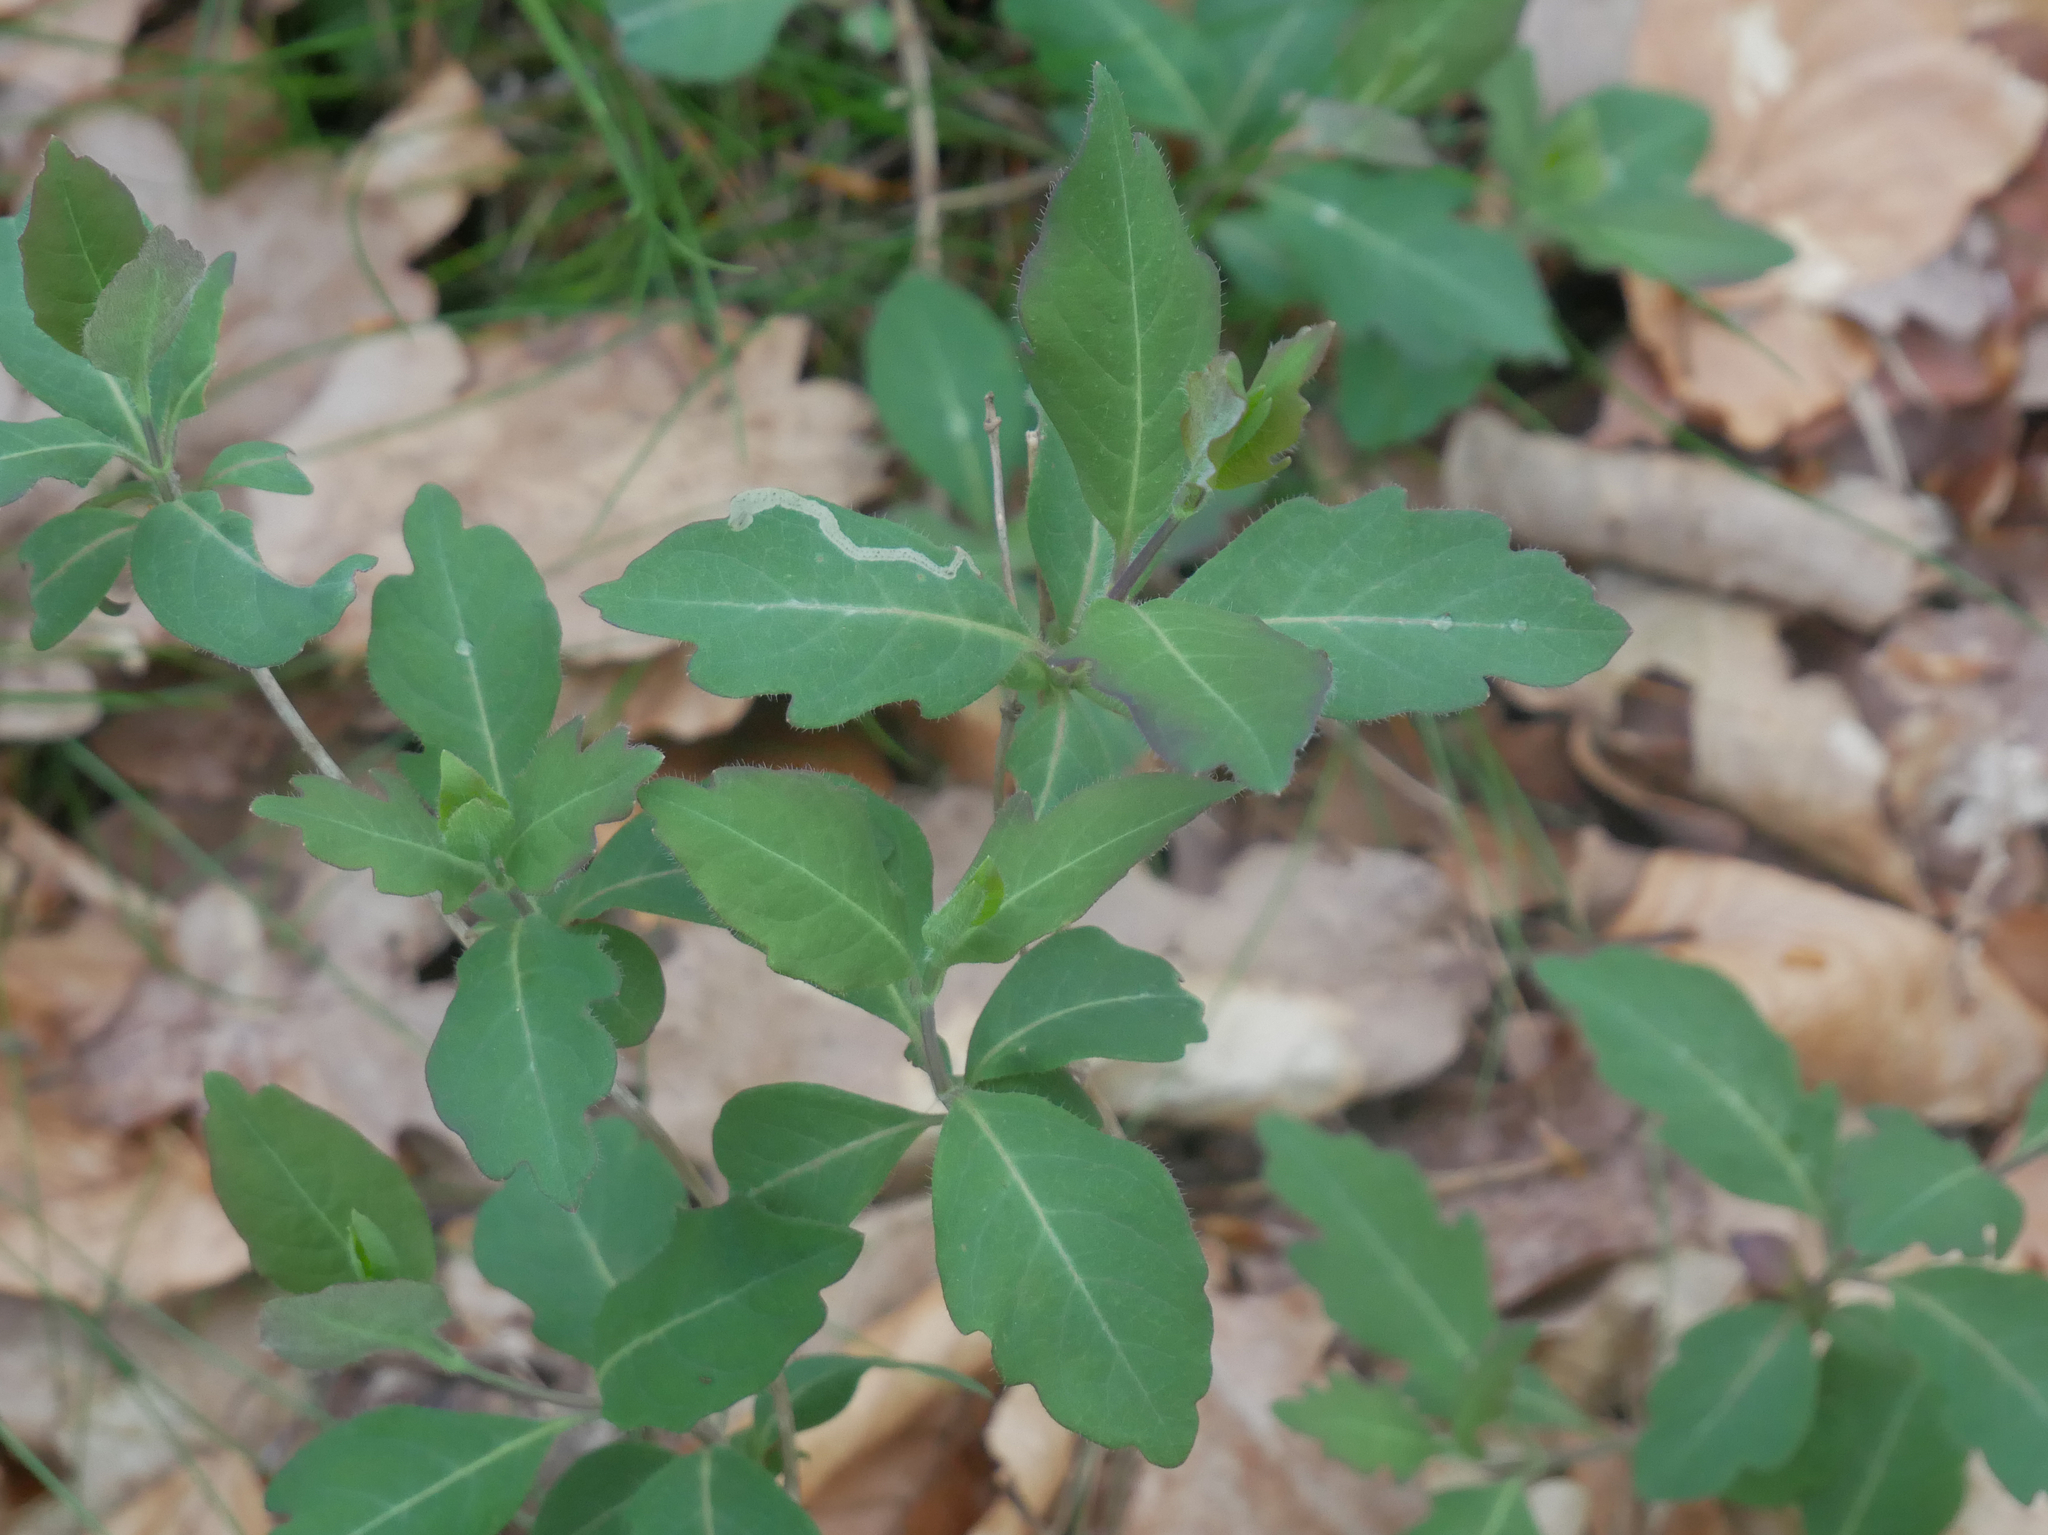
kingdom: Plantae
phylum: Tracheophyta
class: Magnoliopsida
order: Dipsacales
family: Caprifoliaceae
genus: Lonicera
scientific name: Lonicera periclymenum
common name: European honeysuckle
